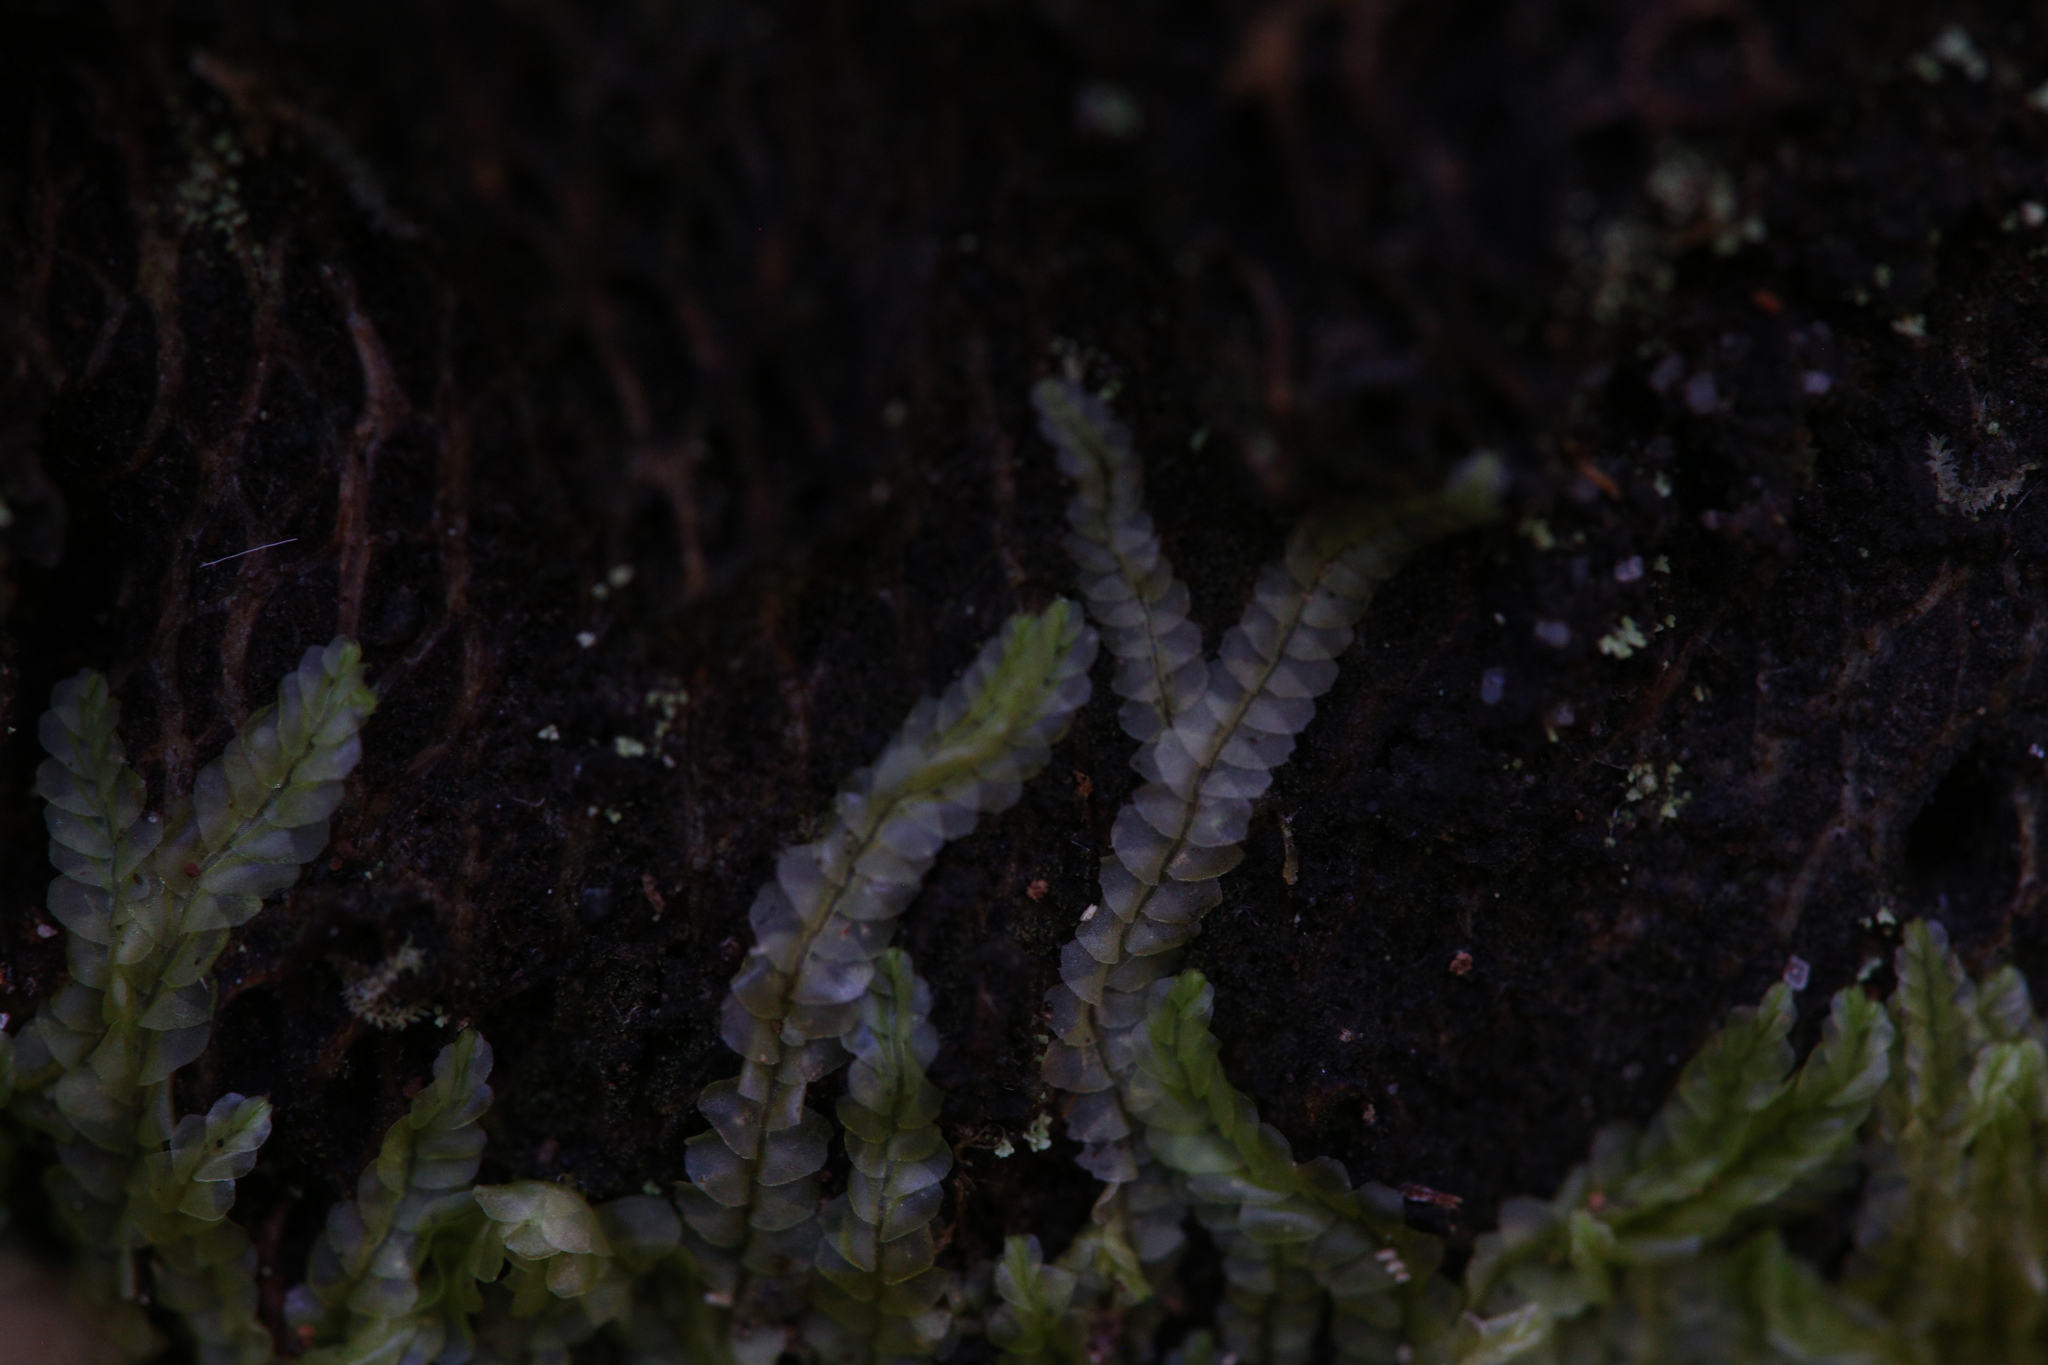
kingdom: Plantae
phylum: Marchantiophyta
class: Jungermanniopsida
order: Jungermanniales
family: Lophocoleaceae
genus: Lophocolea
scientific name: Lophocolea semiteres
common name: Southern crestwort
